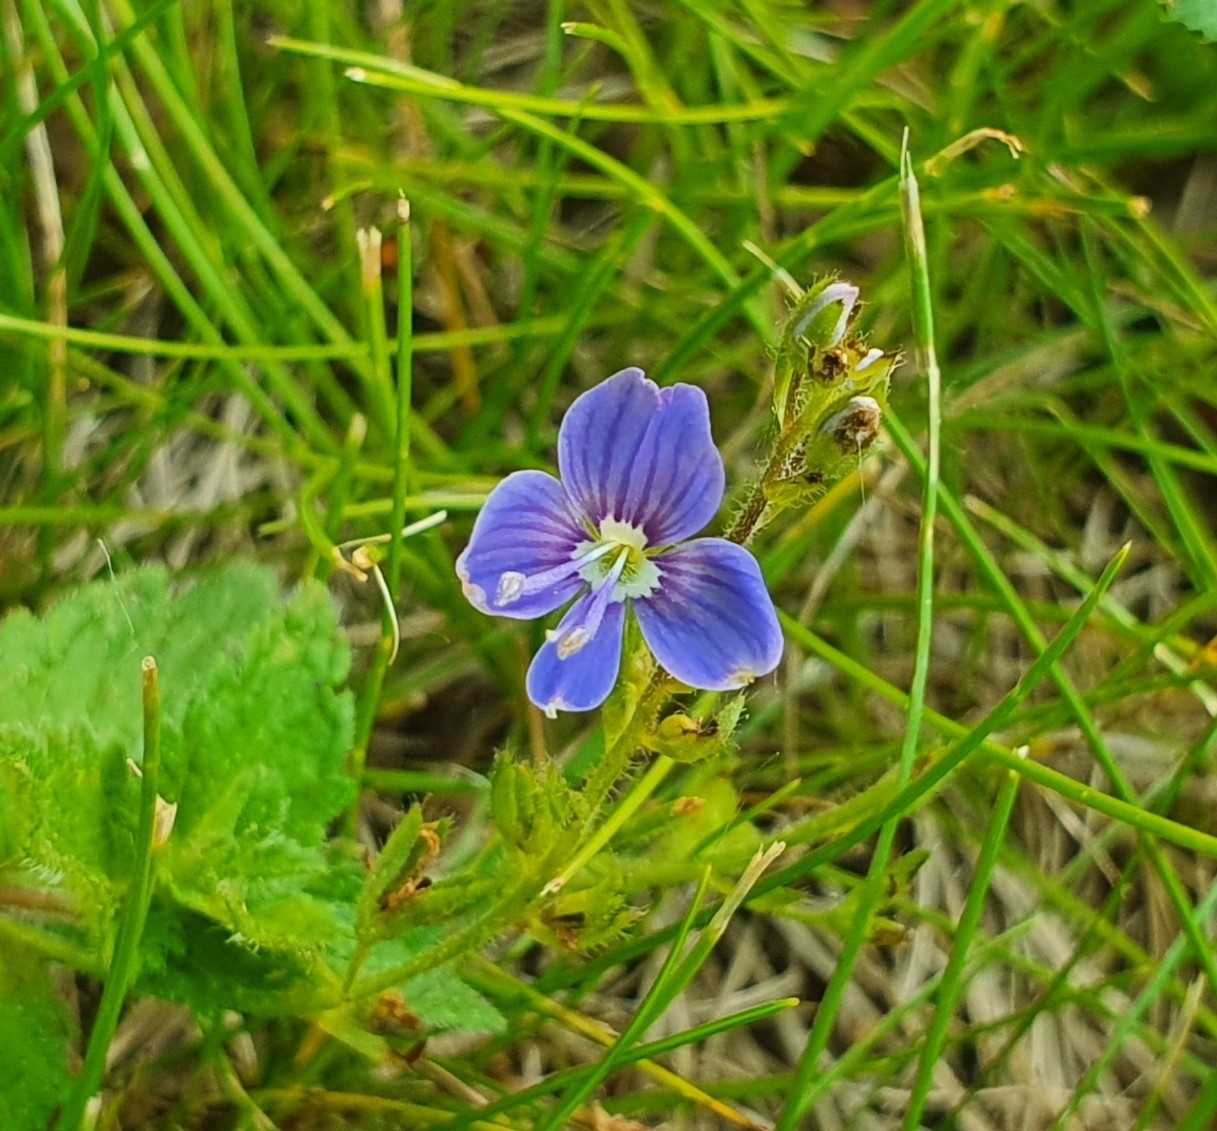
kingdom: Plantae
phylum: Tracheophyta
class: Magnoliopsida
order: Lamiales
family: Plantaginaceae
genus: Veronica
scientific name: Veronica chamaedrys
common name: Germander speedwell
